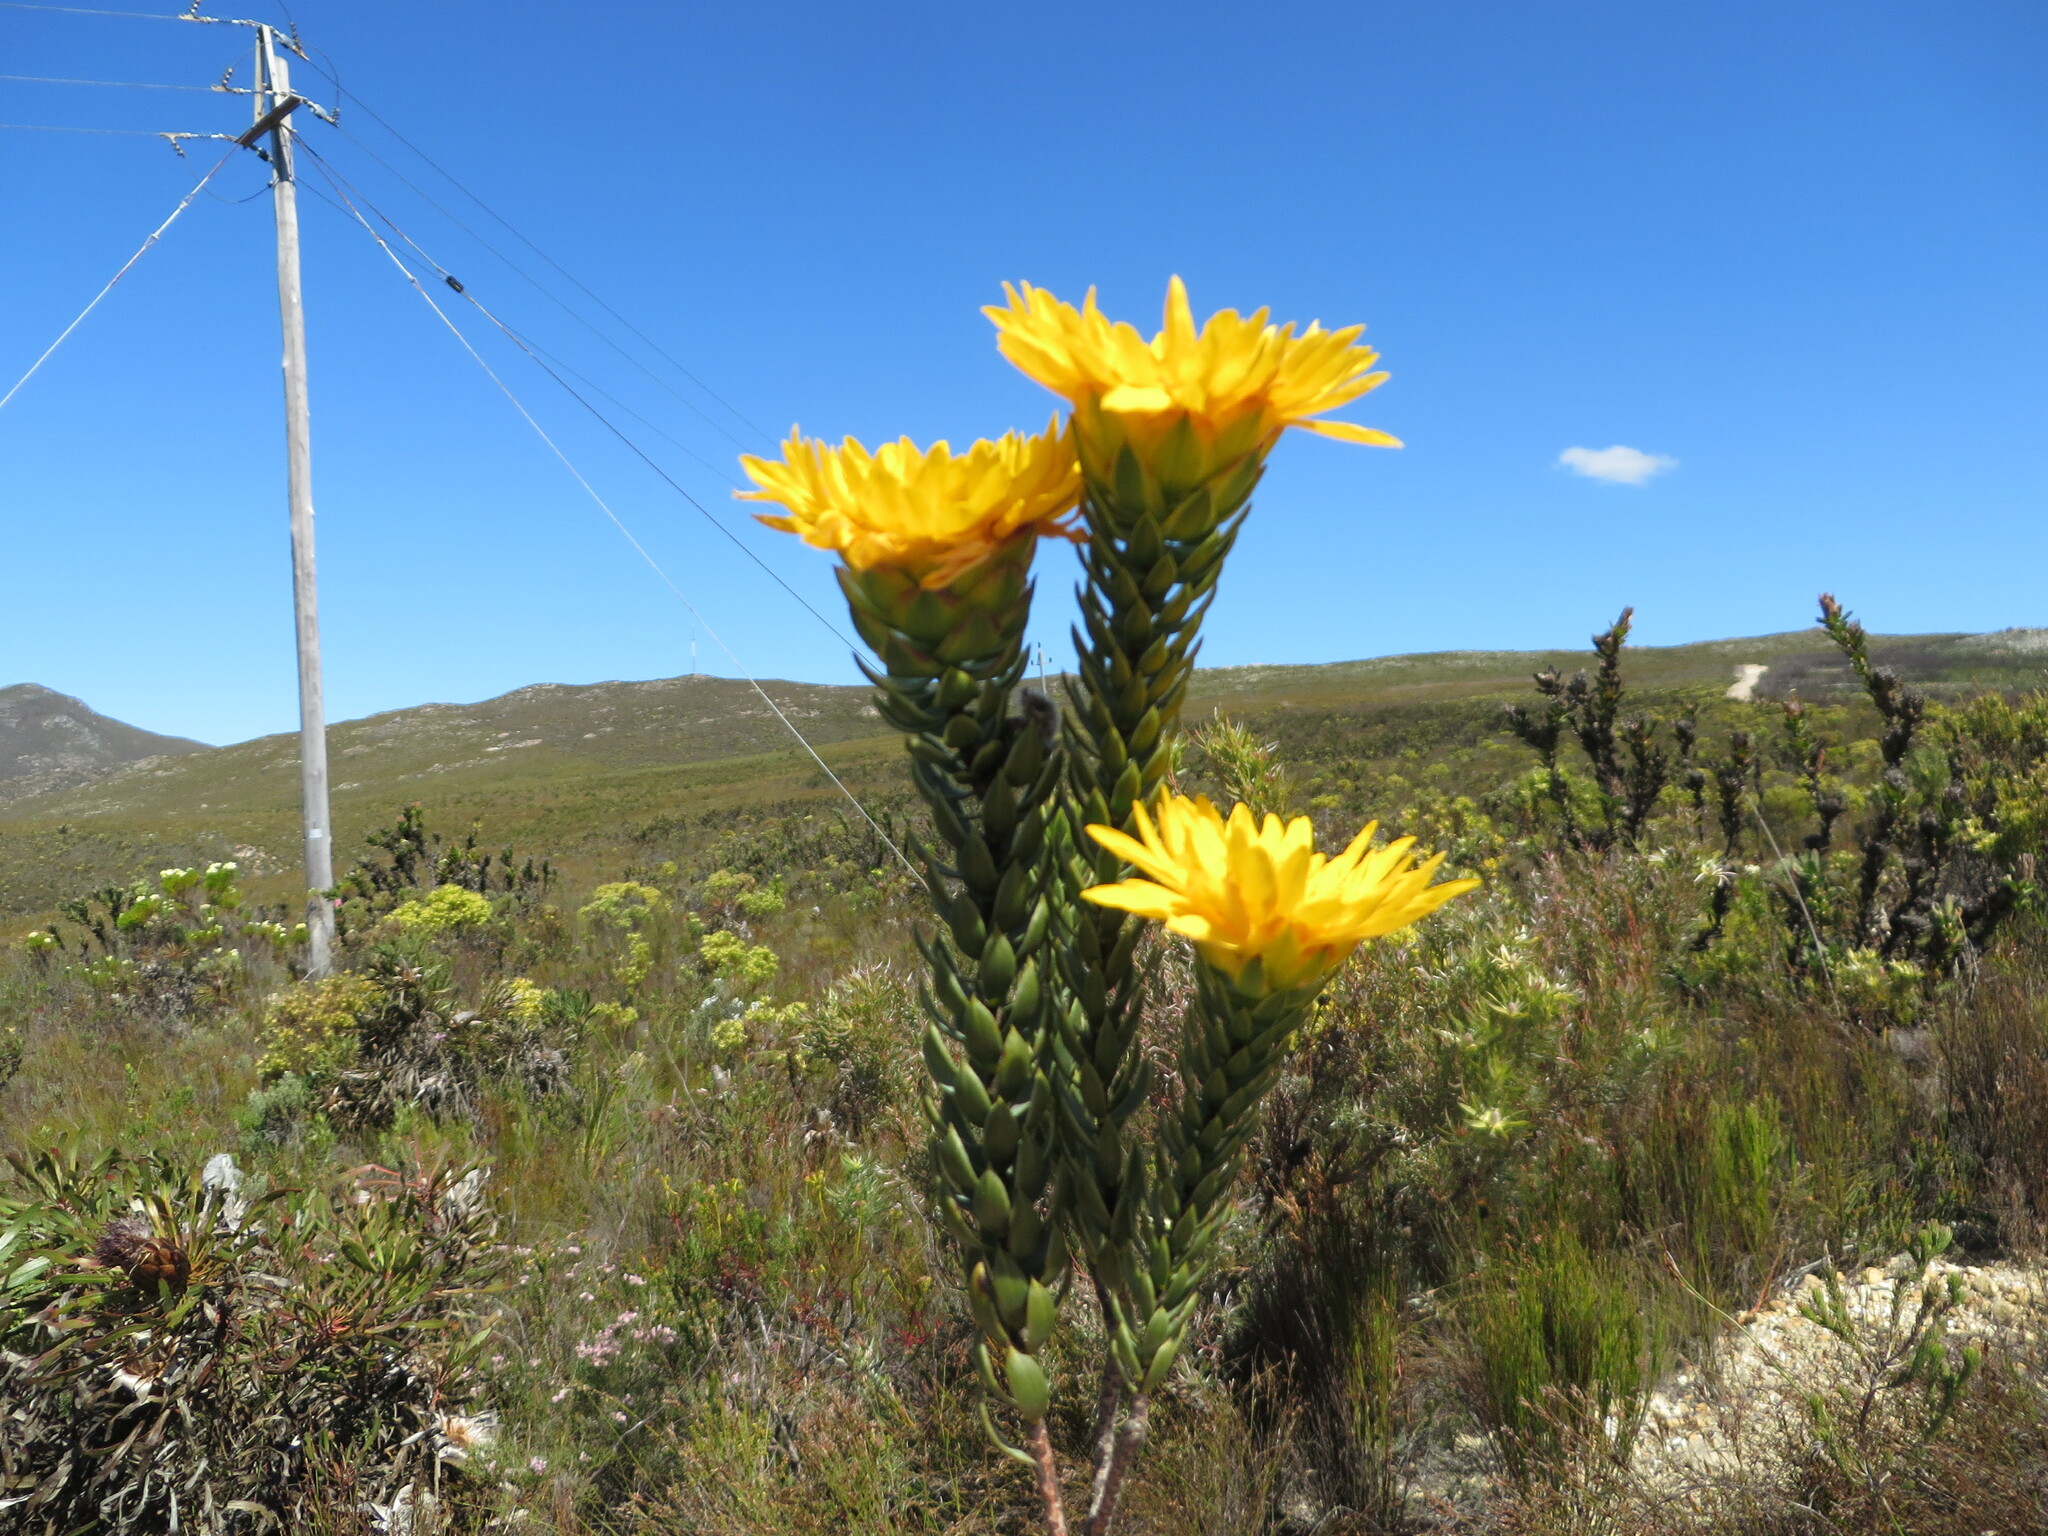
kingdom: Plantae
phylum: Tracheophyta
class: Magnoliopsida
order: Malvales
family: Thymelaeaceae
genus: Lachnaea
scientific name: Lachnaea aurea
